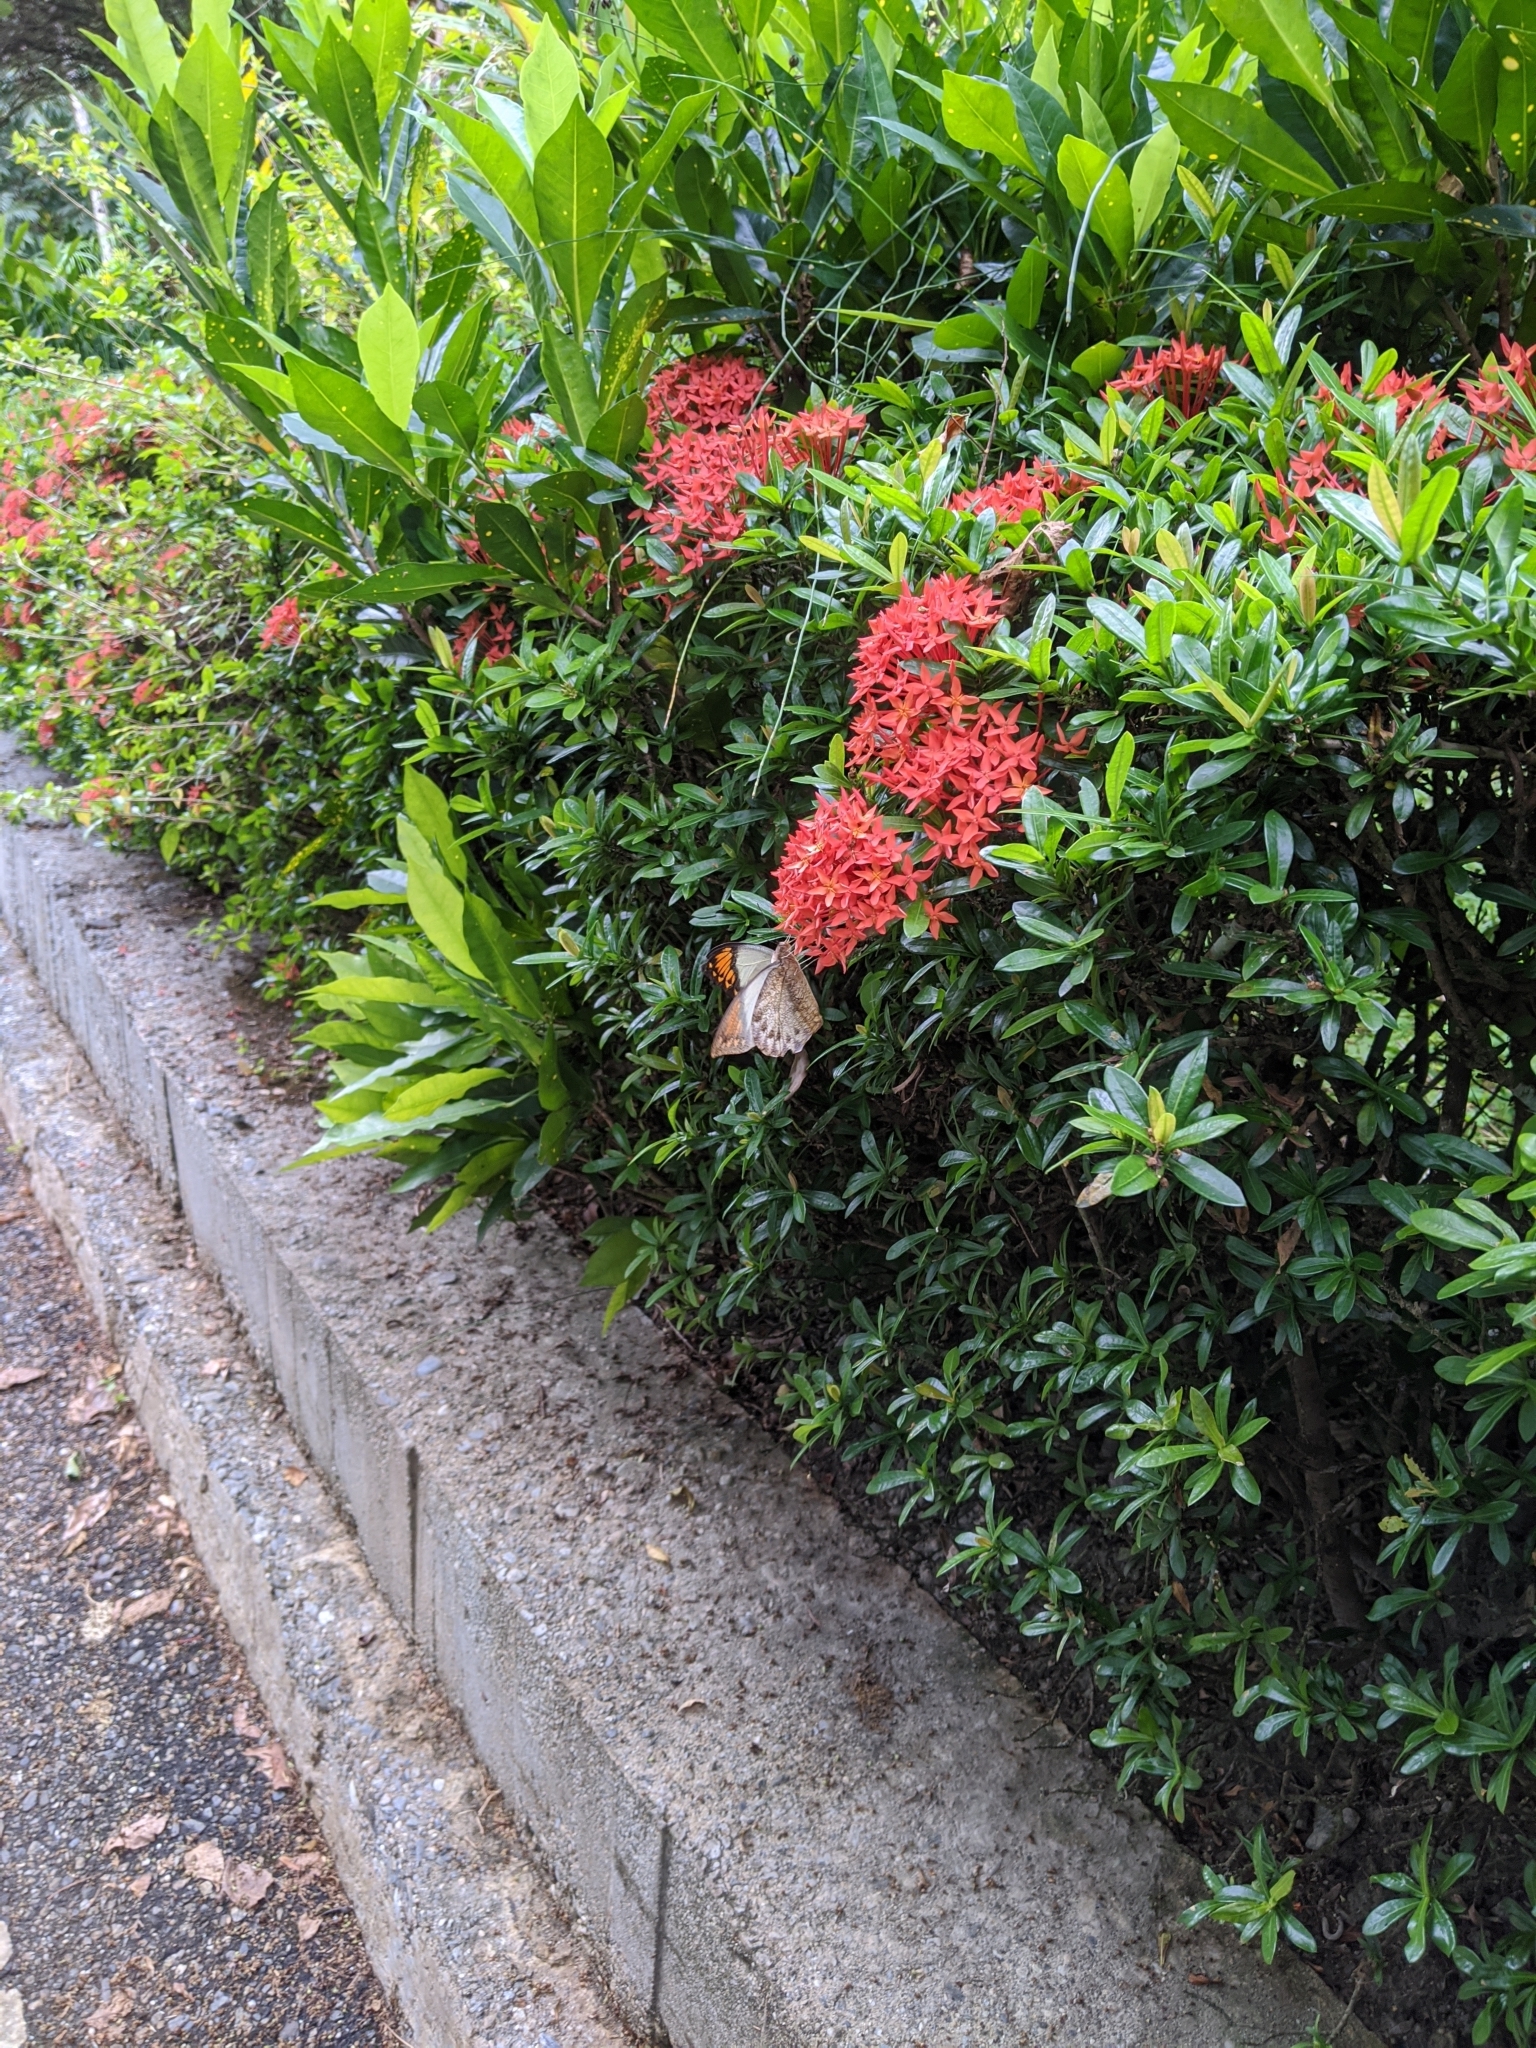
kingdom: Animalia
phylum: Arthropoda
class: Insecta
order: Lepidoptera
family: Pieridae
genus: Hebomoia
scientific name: Hebomoia glaucippe
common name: Great orange tip
